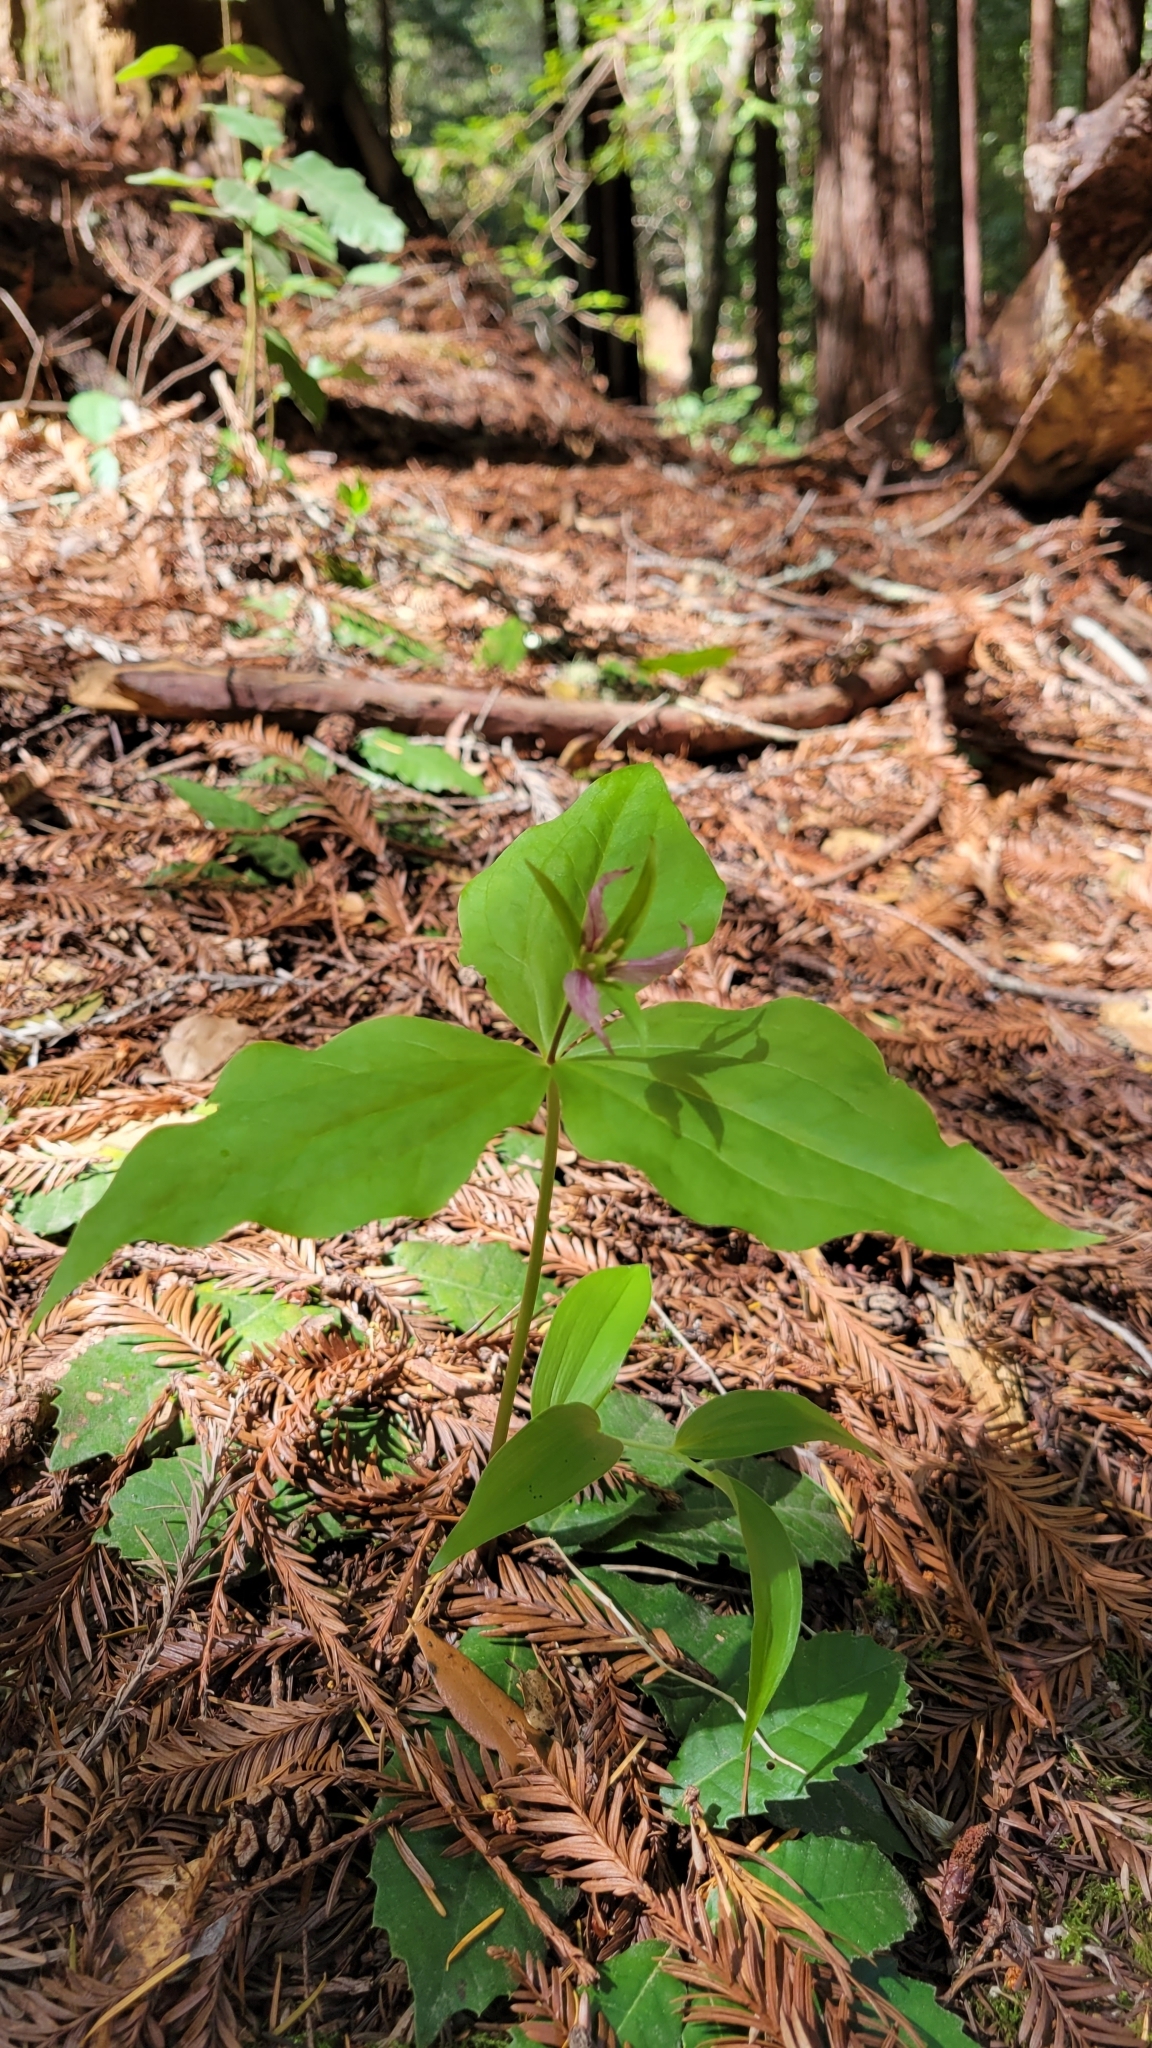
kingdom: Plantae
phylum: Tracheophyta
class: Liliopsida
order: Liliales
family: Melanthiaceae
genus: Trillium
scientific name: Trillium ovatum
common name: Pacific trillium
